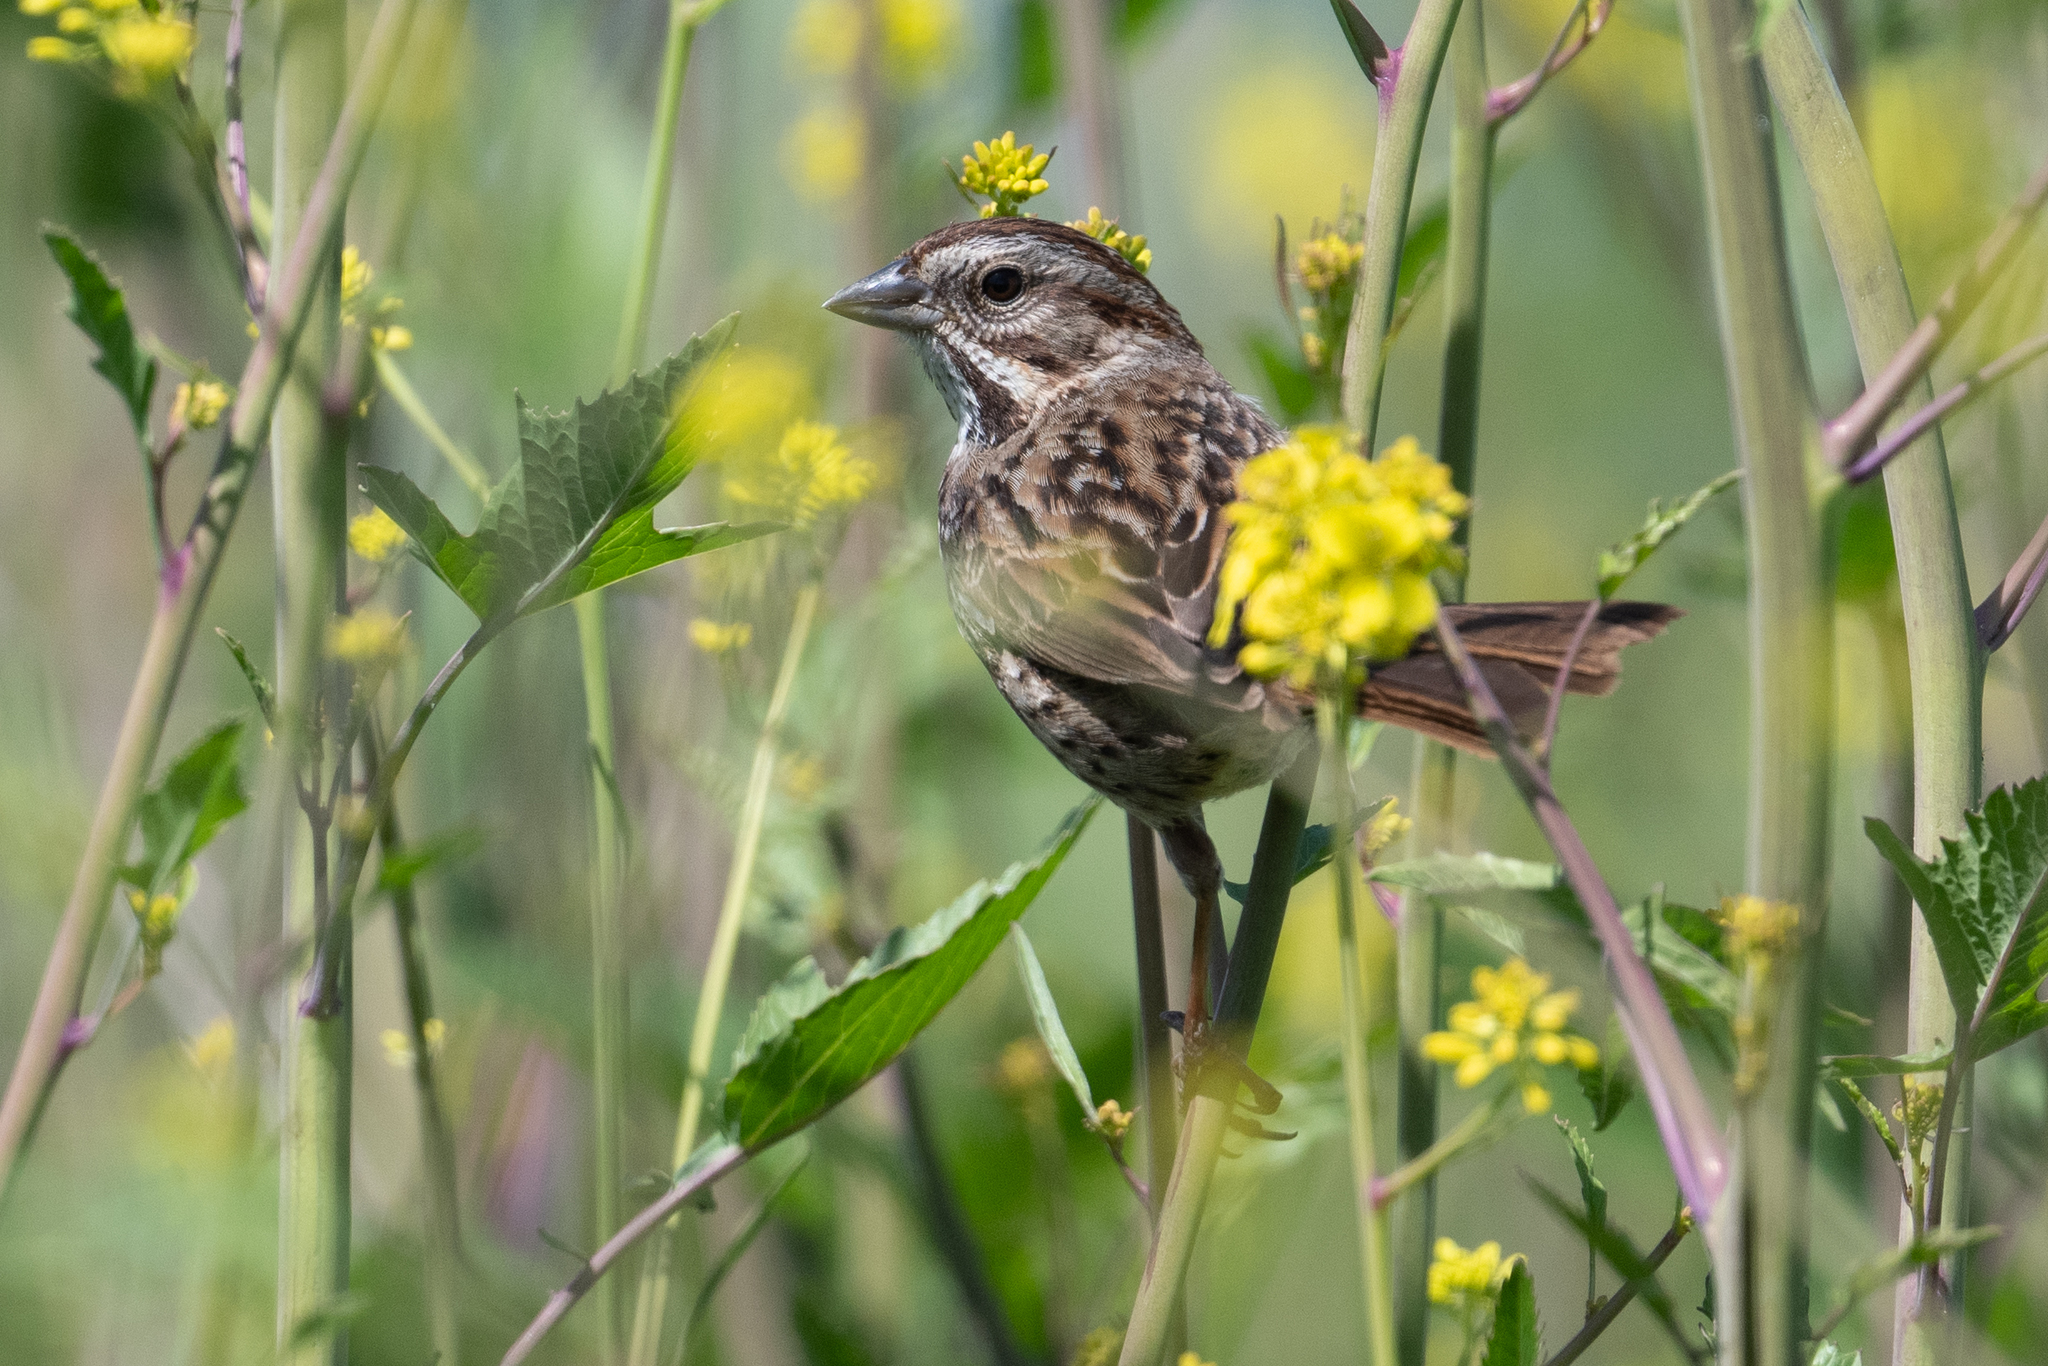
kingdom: Animalia
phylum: Chordata
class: Aves
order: Passeriformes
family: Passerellidae
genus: Melospiza
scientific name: Melospiza melodia
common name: Song sparrow
